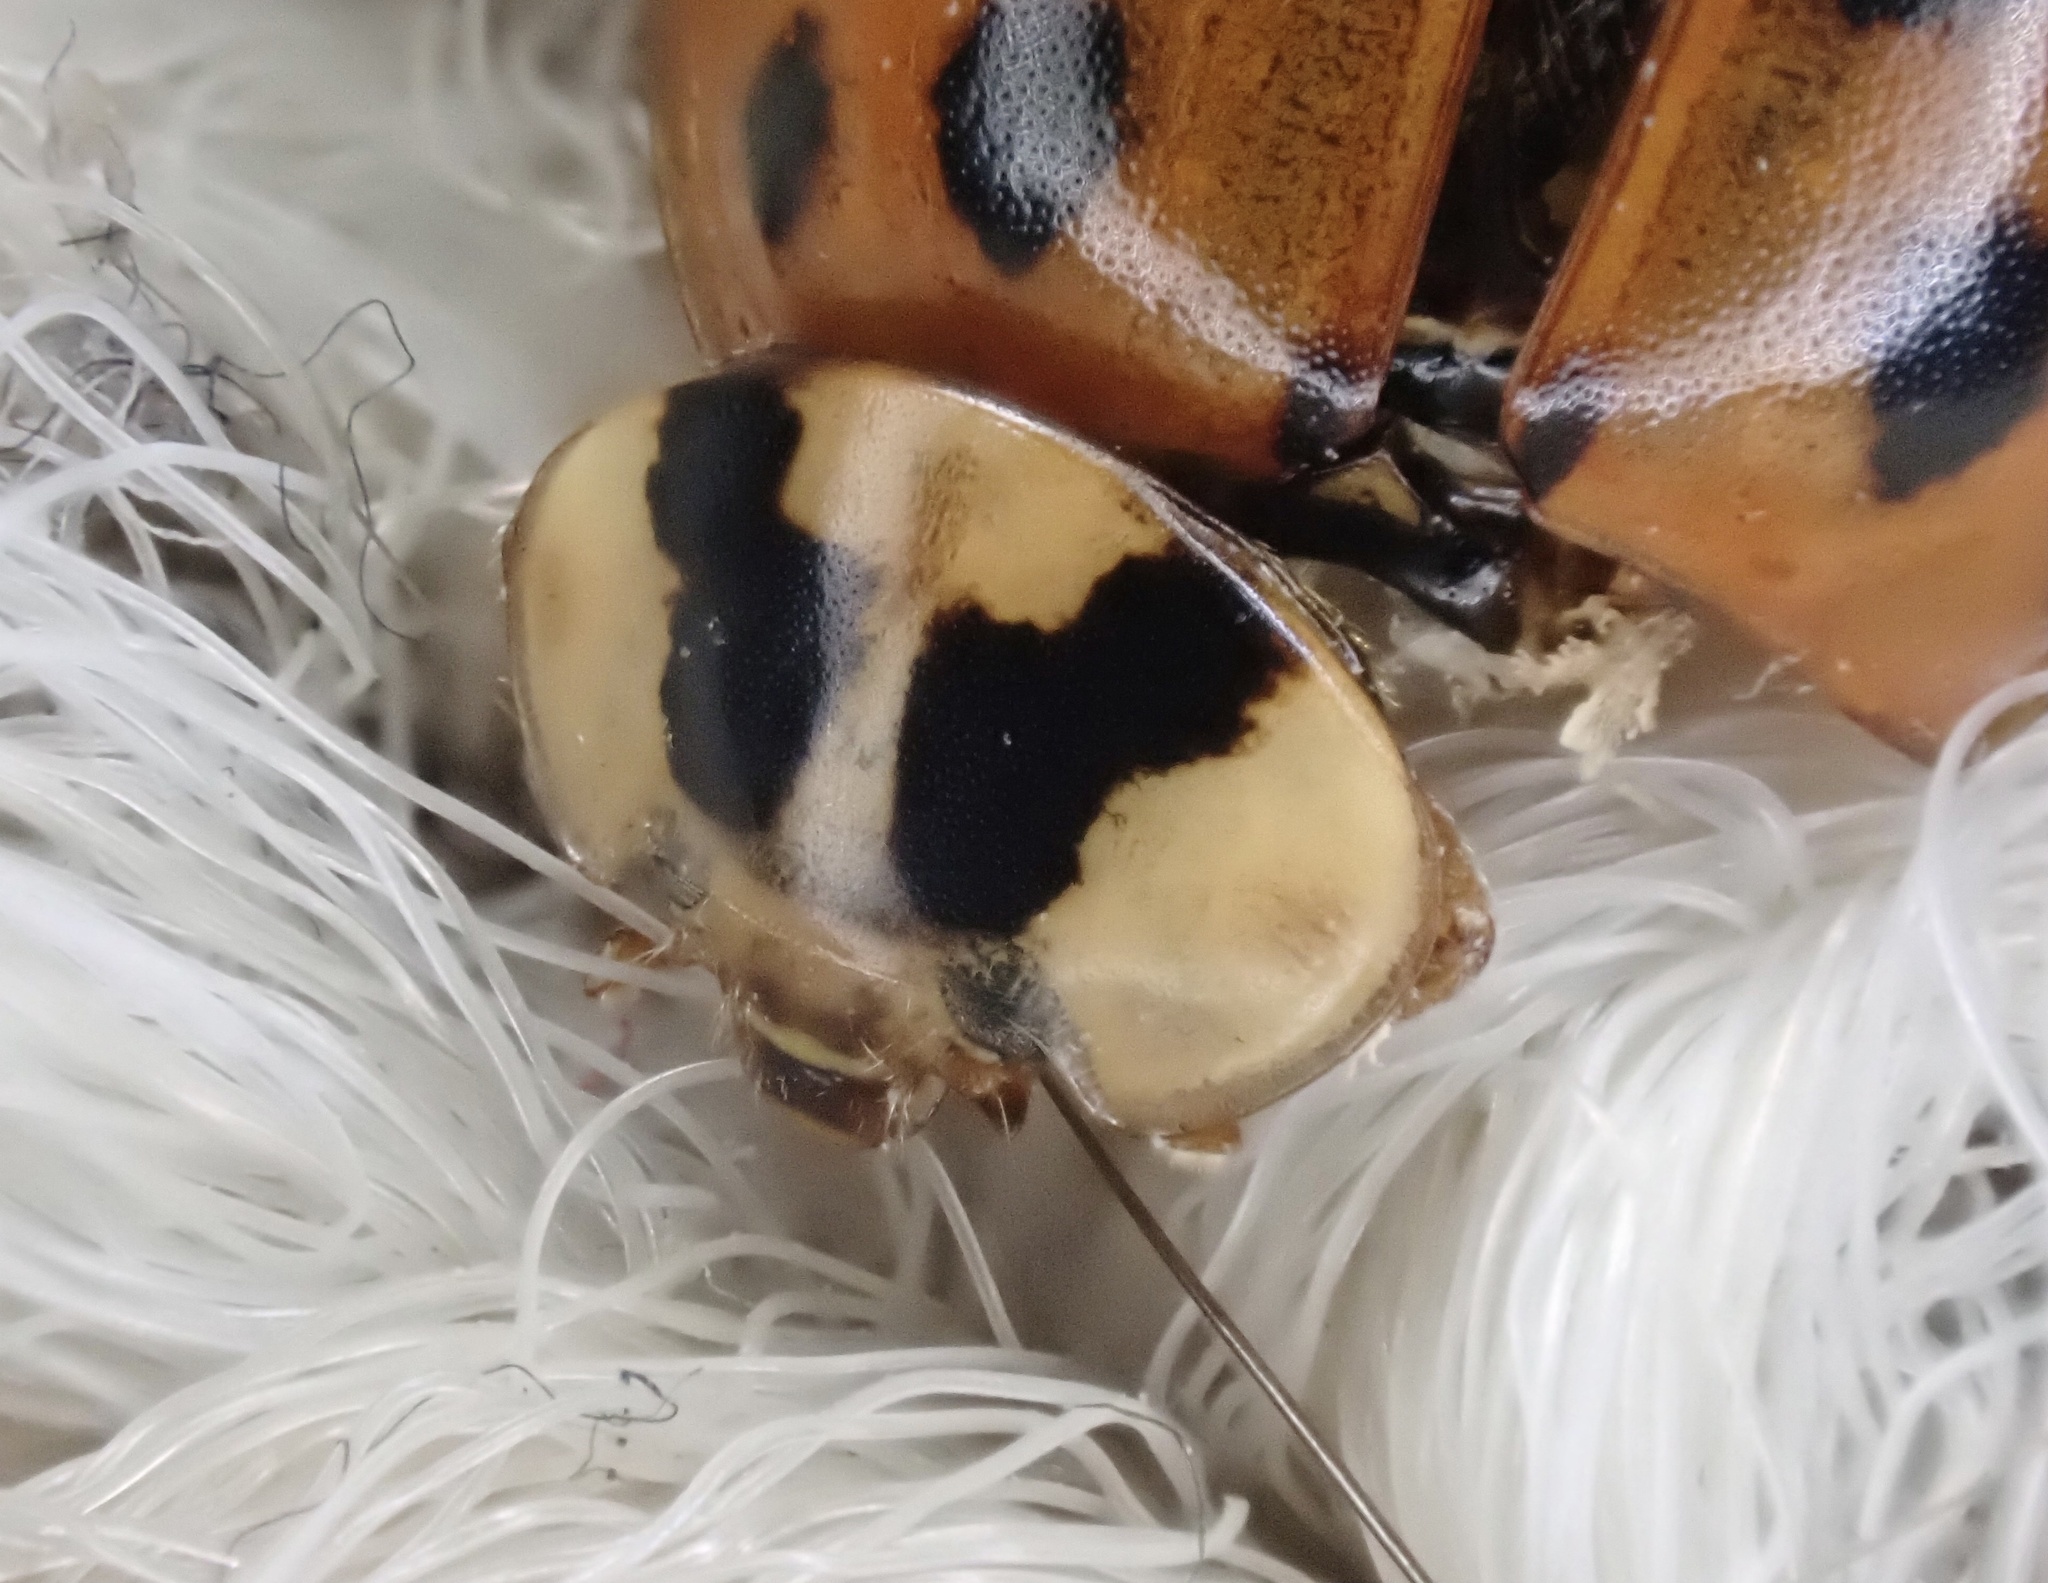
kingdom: Animalia
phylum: Arthropoda
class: Insecta
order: Coleoptera
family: Coccinellidae
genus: Harmonia
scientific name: Harmonia axyridis
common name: Harlequin ladybird
